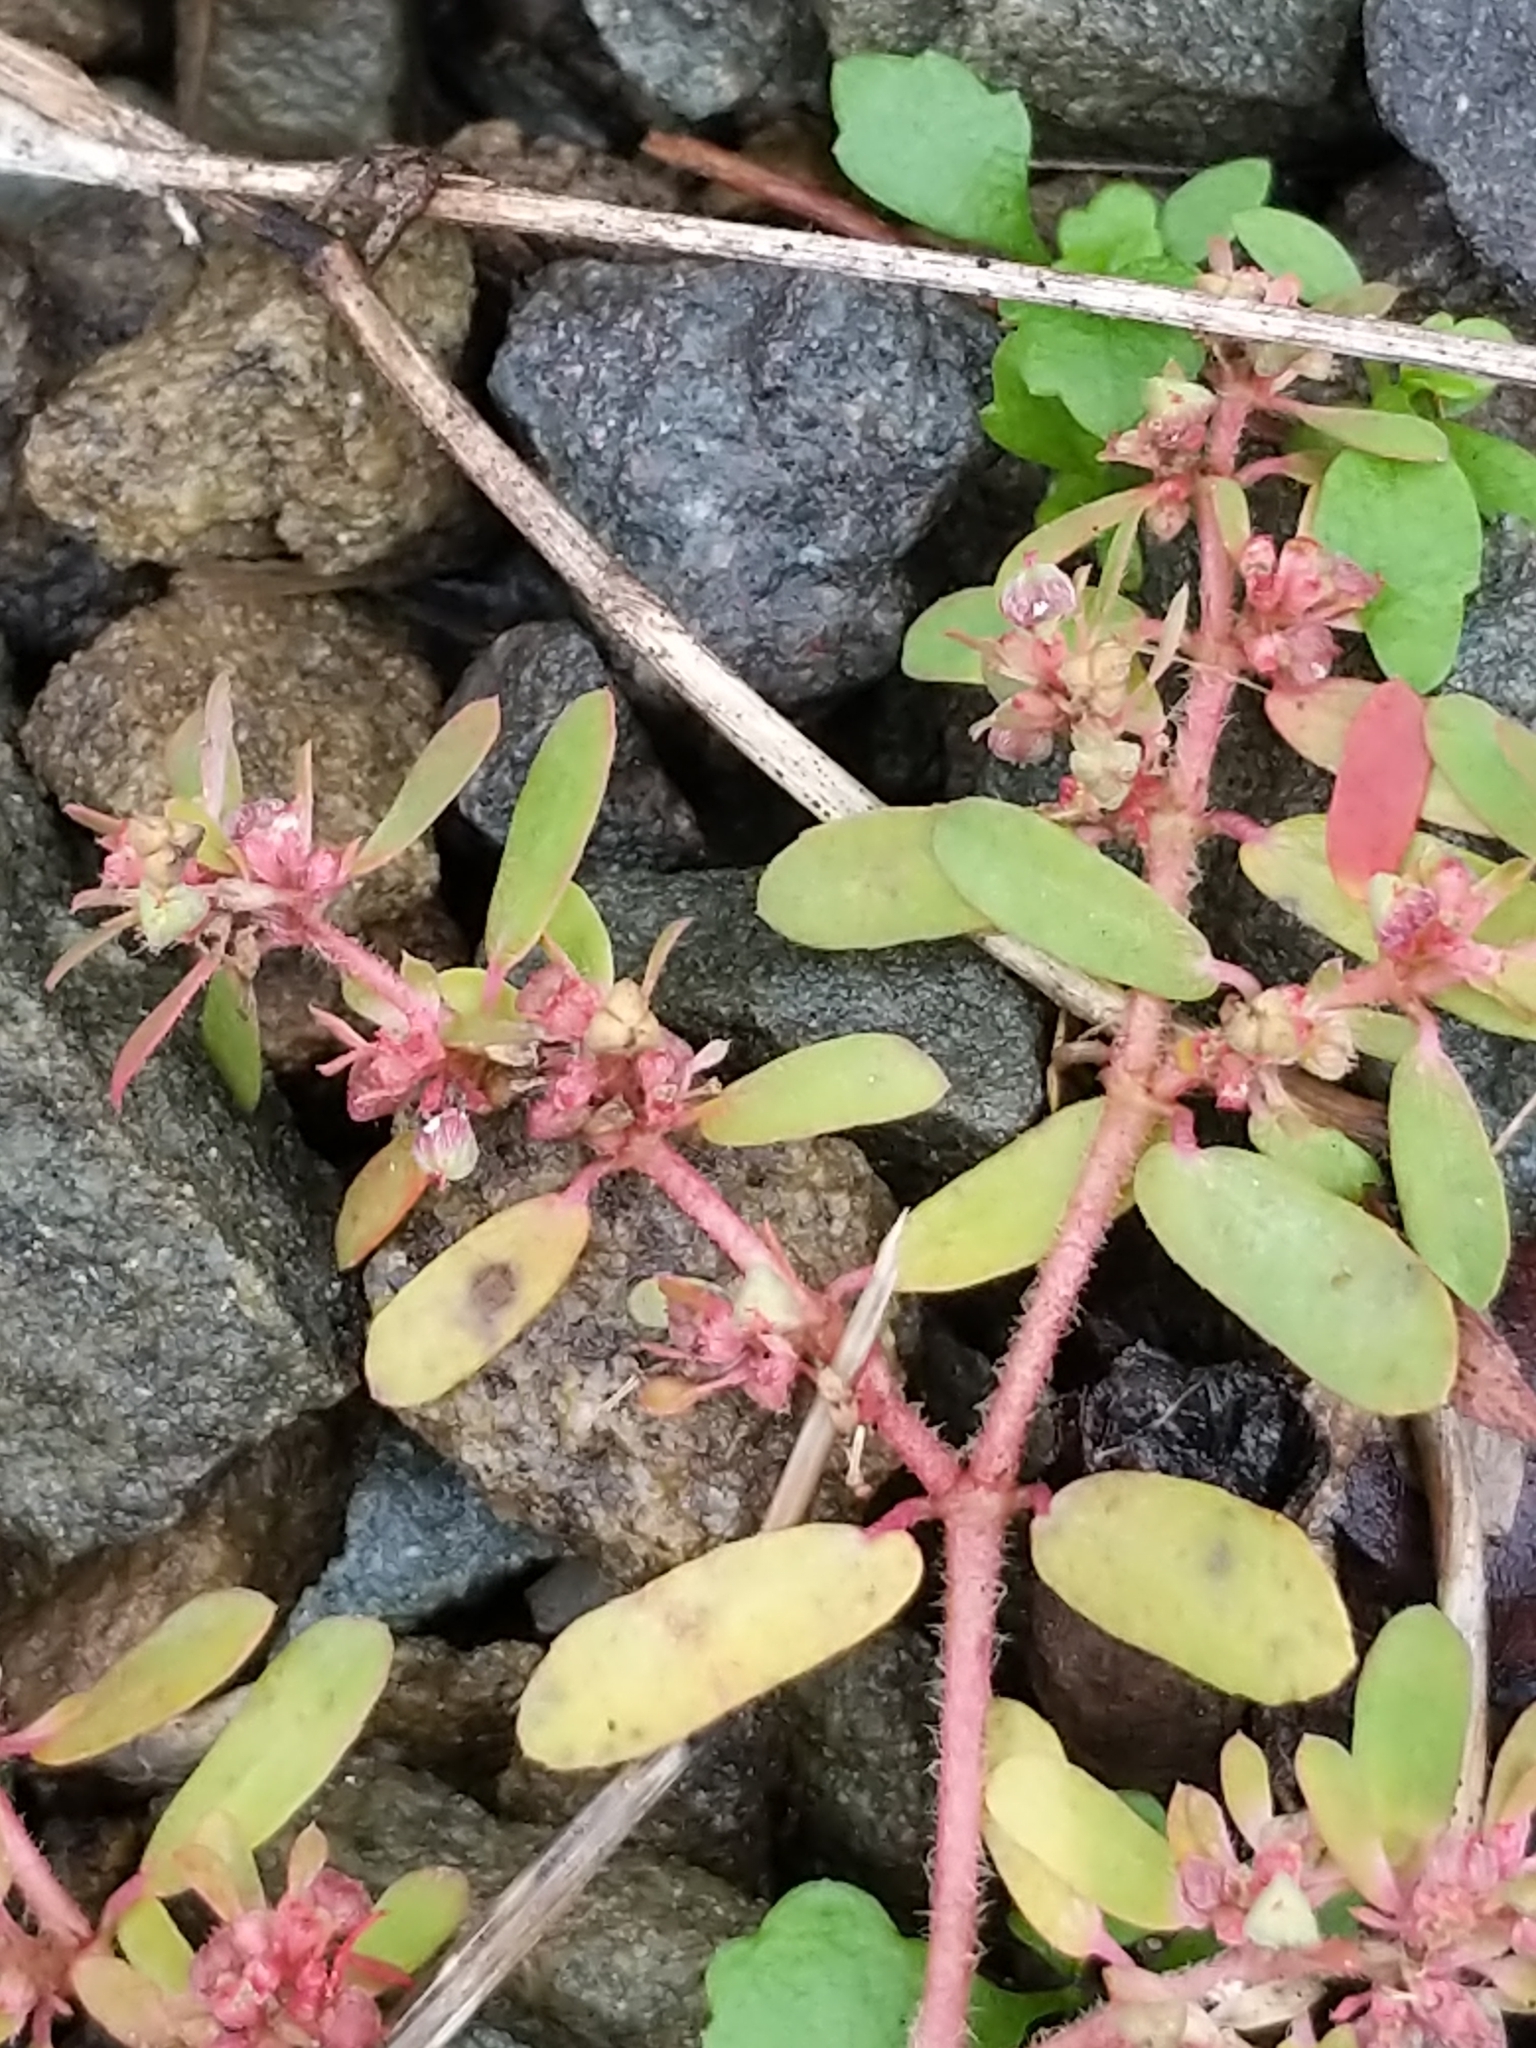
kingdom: Plantae
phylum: Tracheophyta
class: Magnoliopsida
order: Malpighiales
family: Euphorbiaceae
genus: Euphorbia
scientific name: Euphorbia maculata
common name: Spotted spurge
